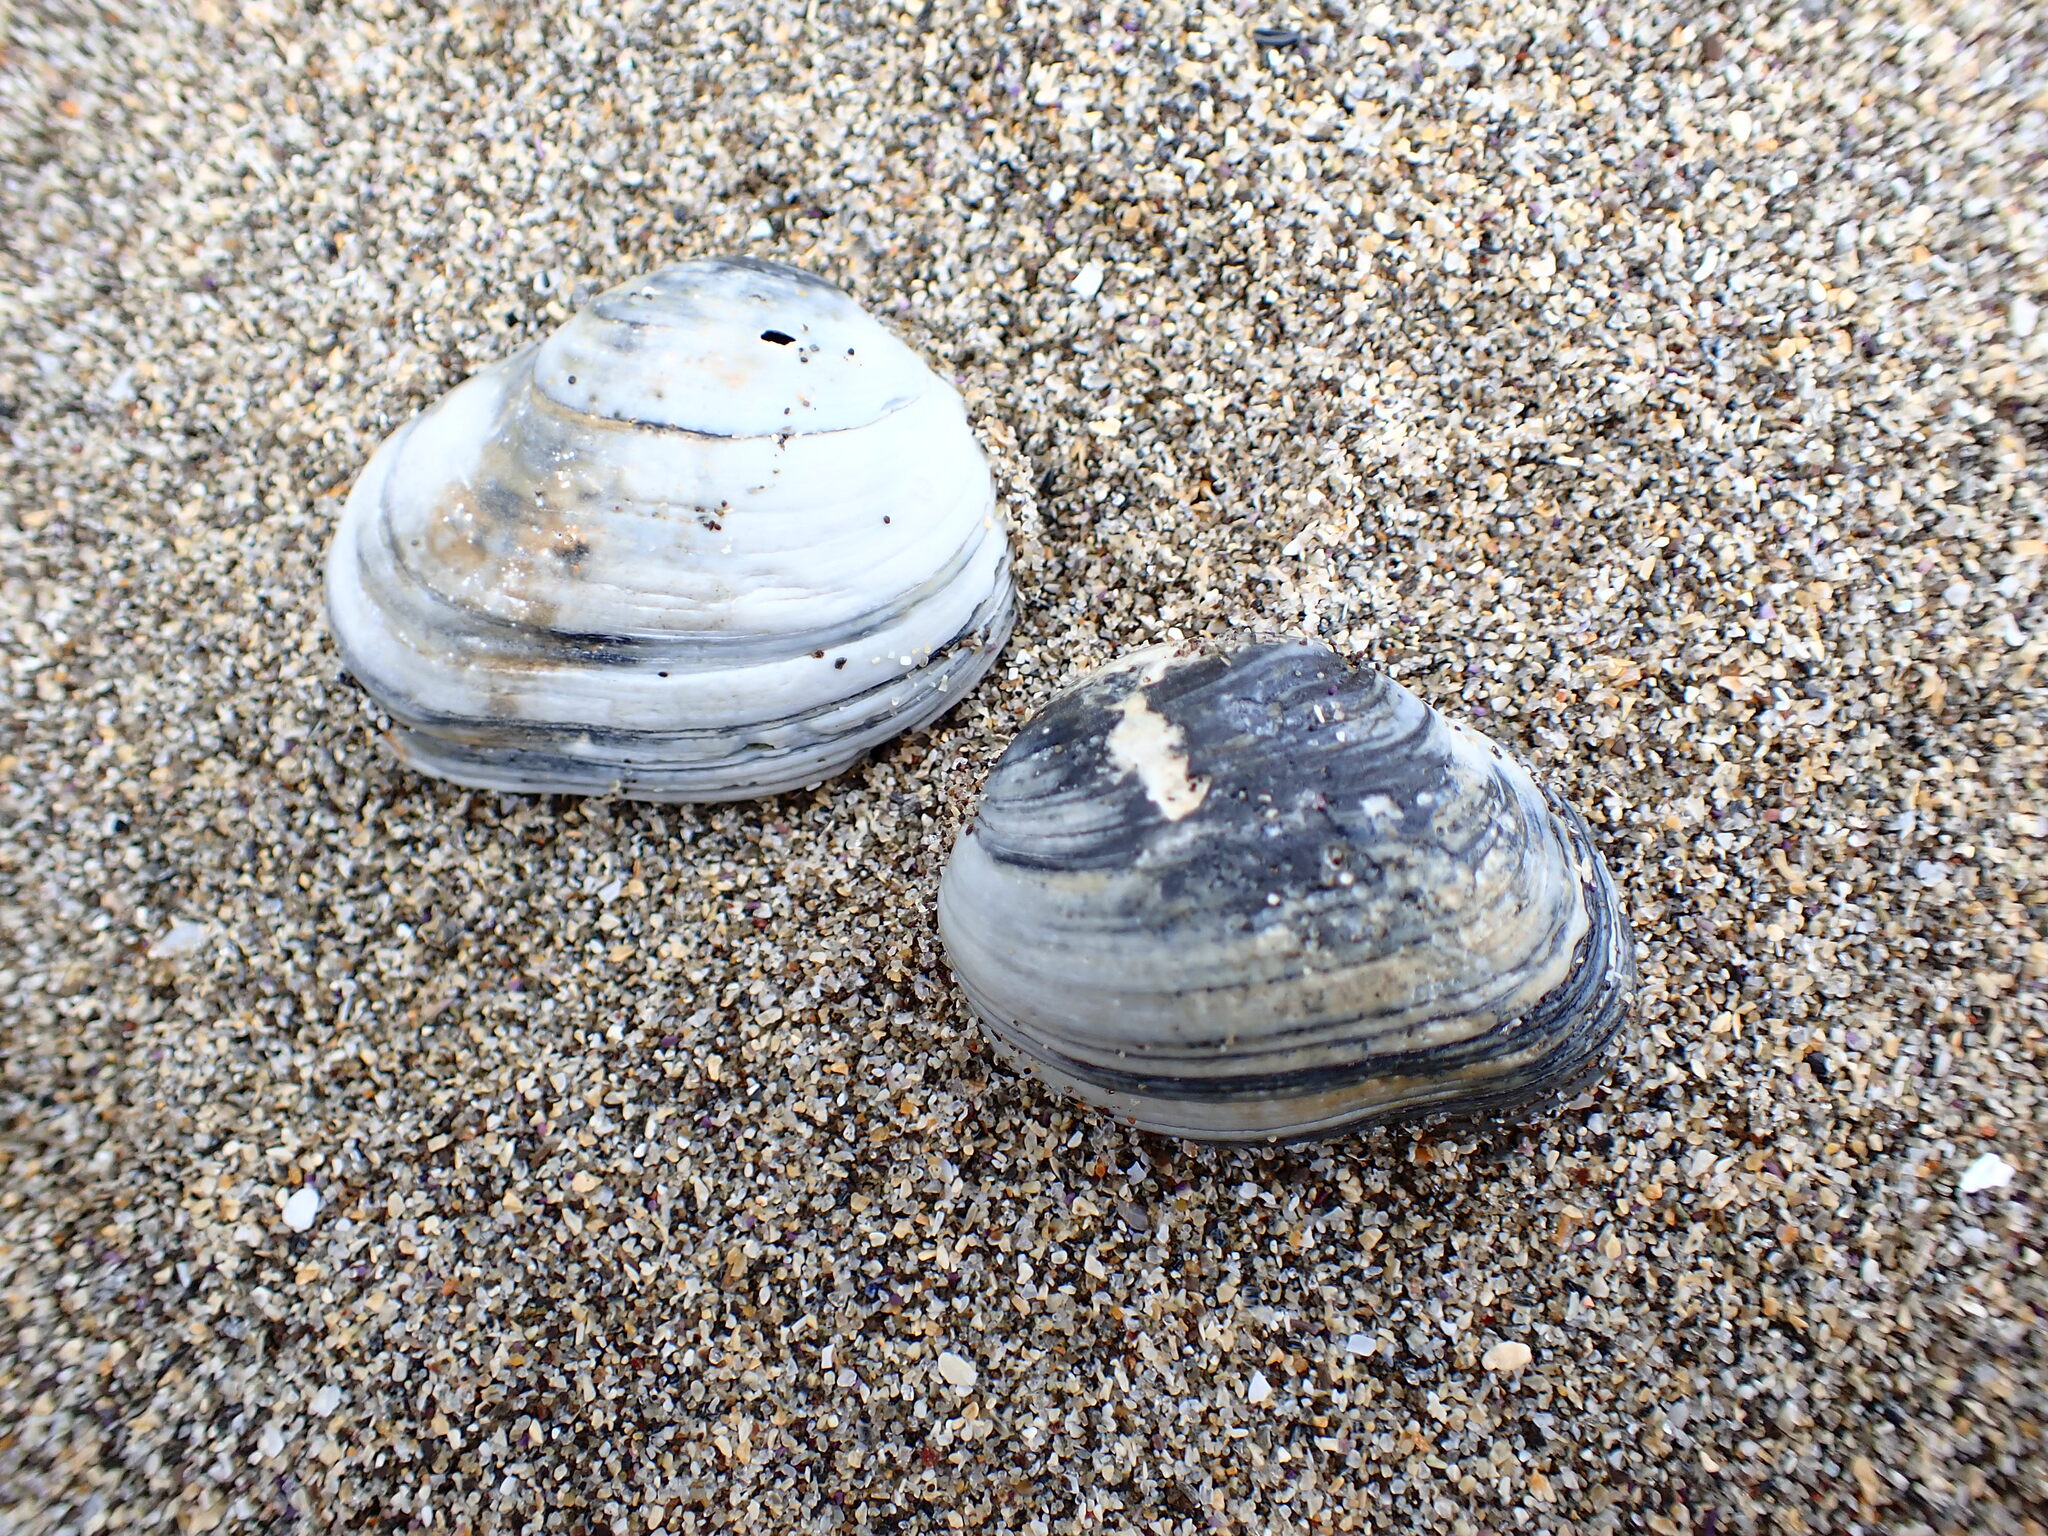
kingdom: Animalia
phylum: Mollusca
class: Bivalvia
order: Venerida
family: Veneridae
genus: Petricola
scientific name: Petricola carditoides
